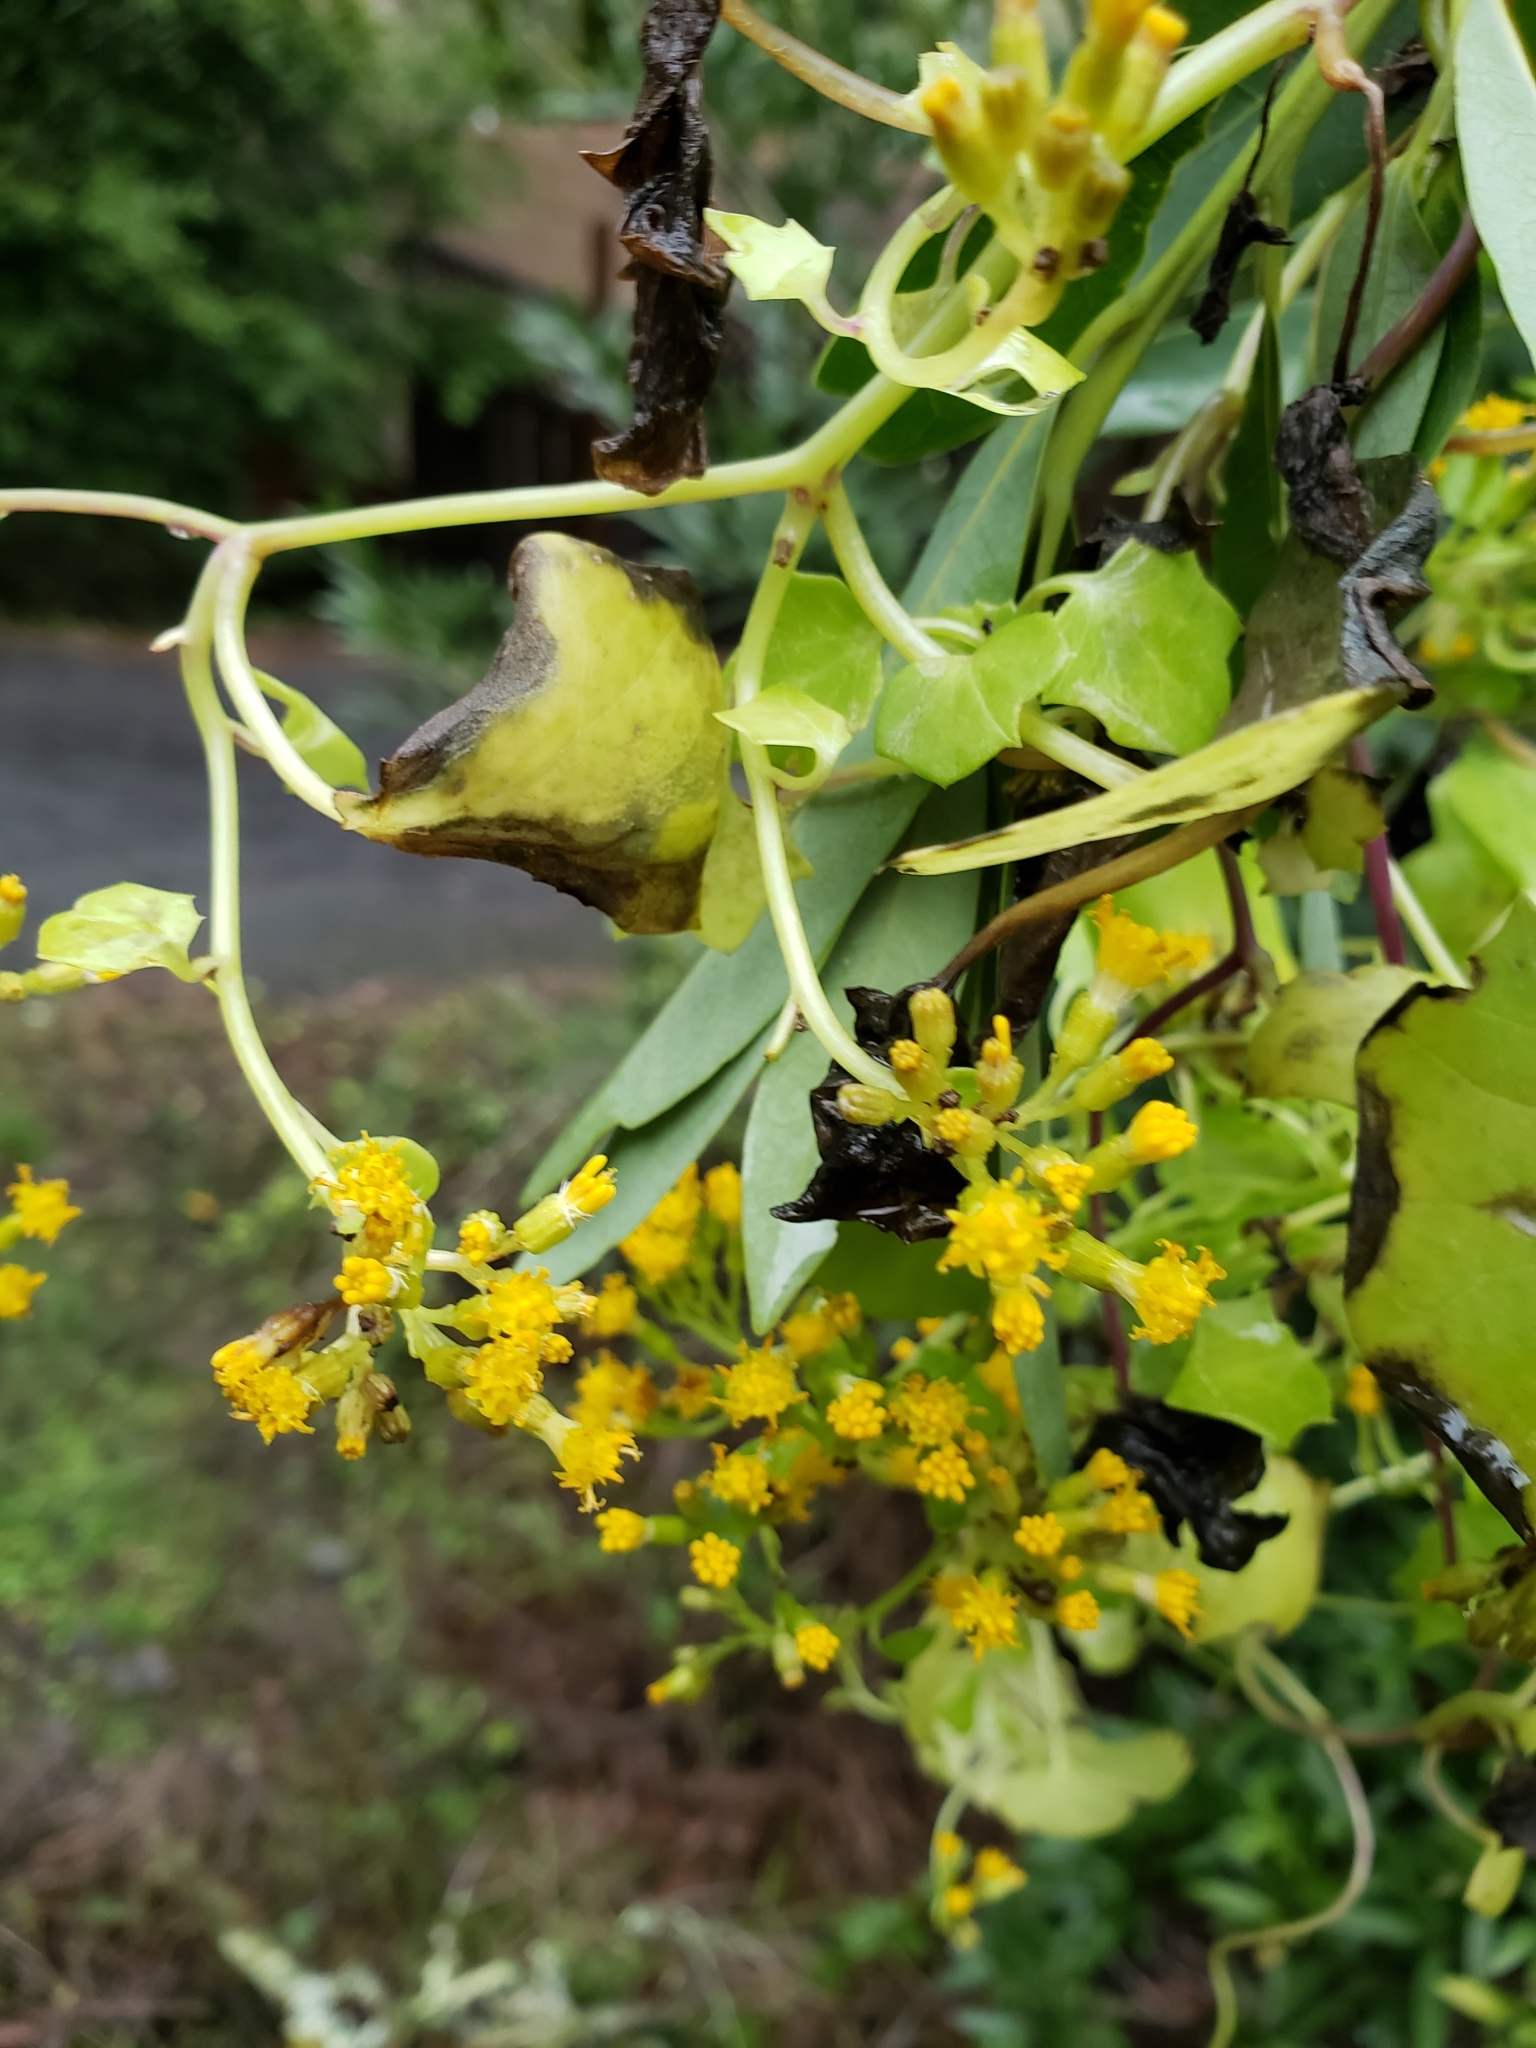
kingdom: Plantae
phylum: Tracheophyta
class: Magnoliopsida
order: Asterales
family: Asteraceae
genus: Delairea
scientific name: Delairea odorata
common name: Cape-ivy
